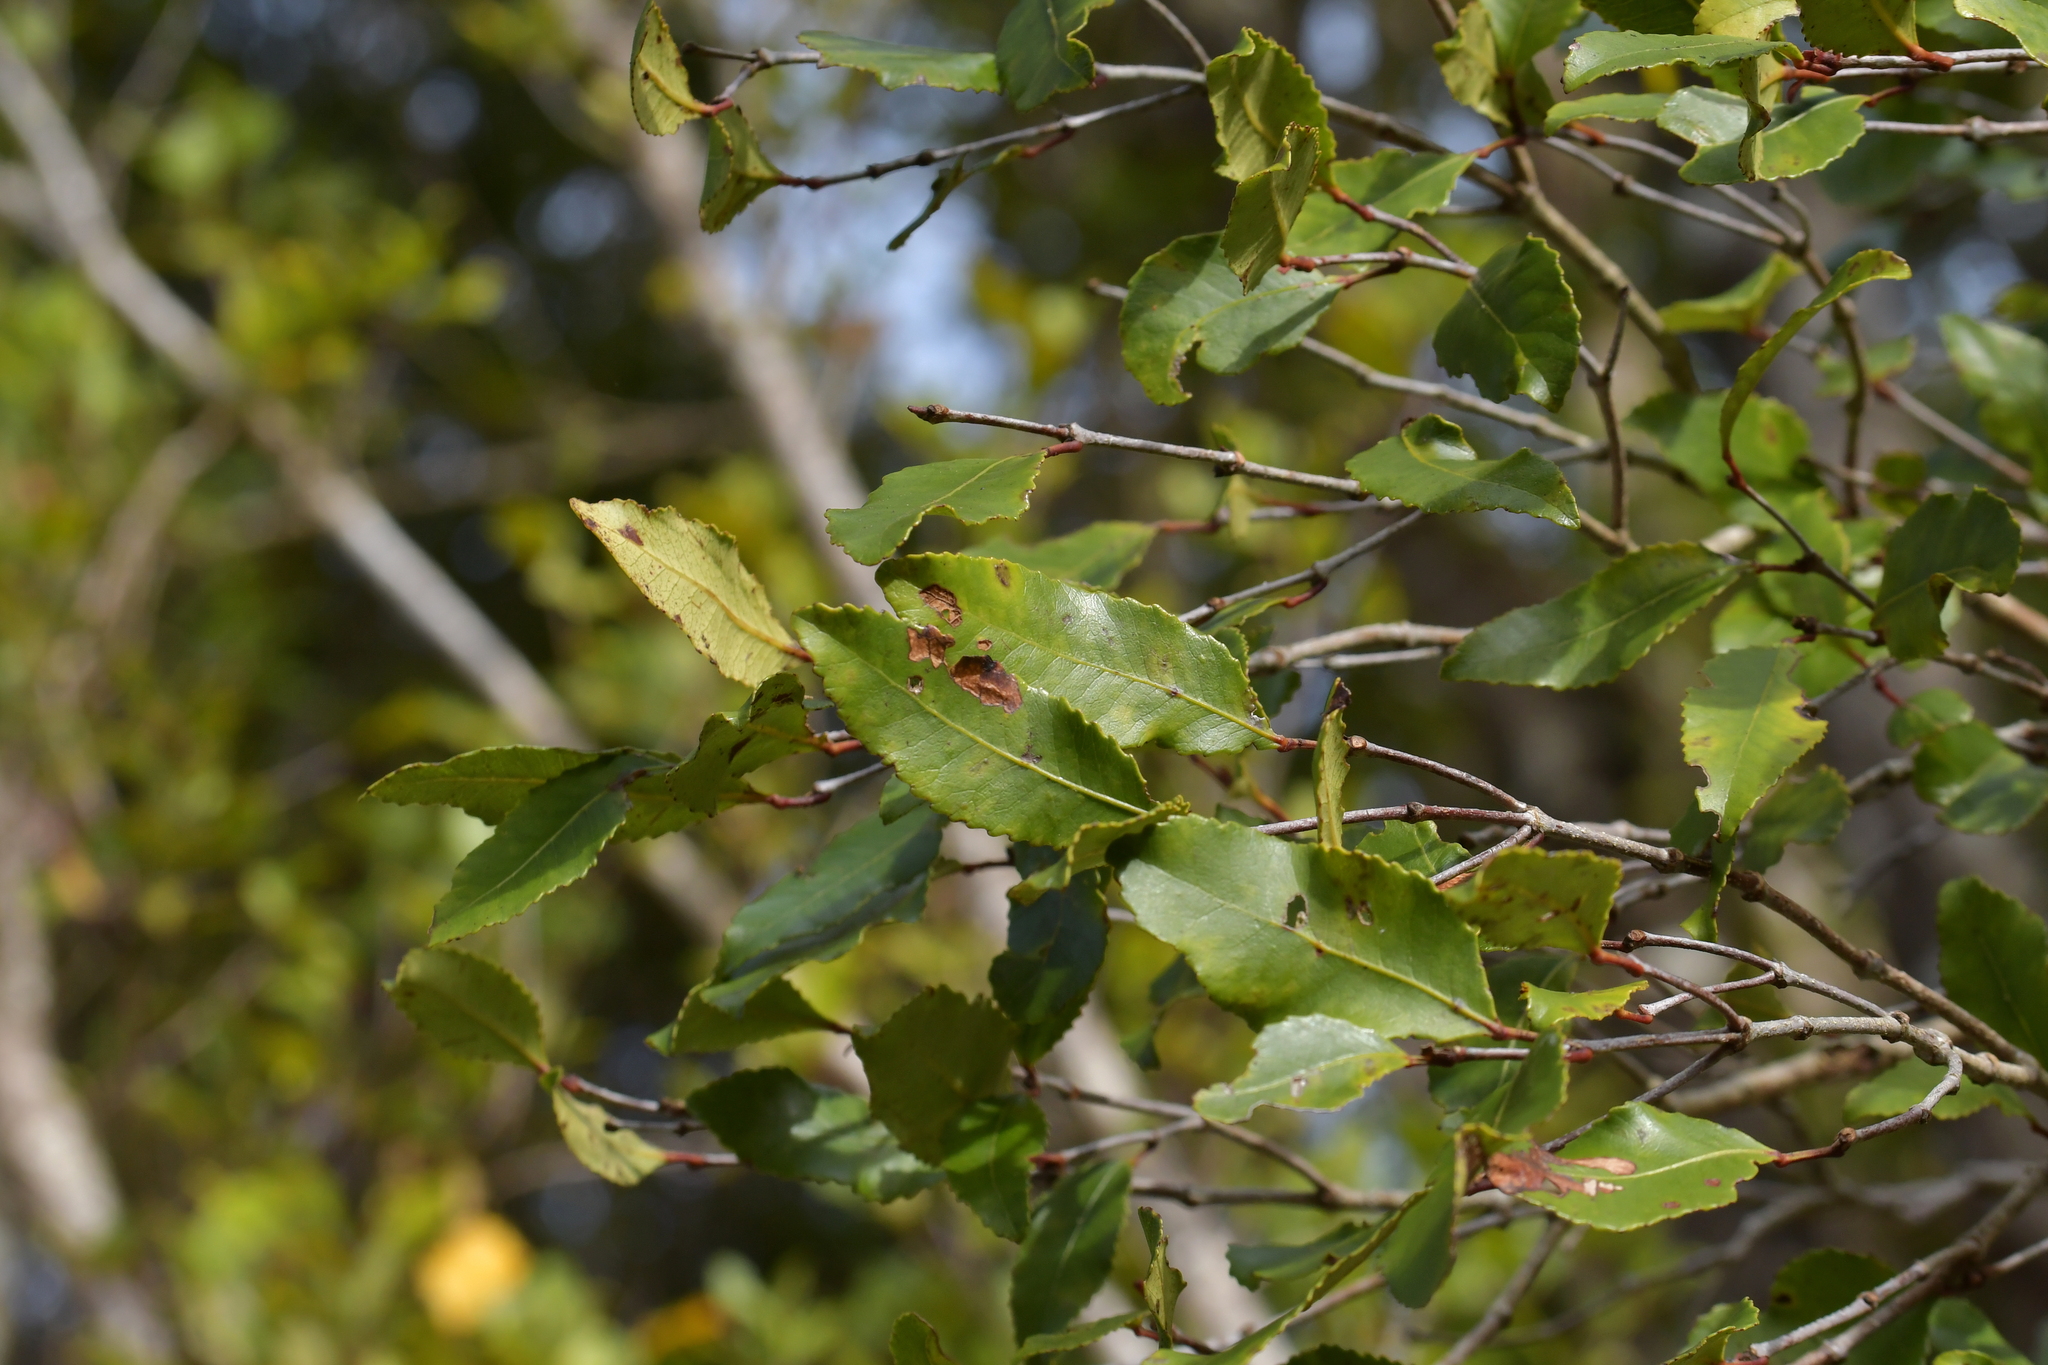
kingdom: Plantae
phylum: Tracheophyta
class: Magnoliopsida
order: Oxalidales
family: Cunoniaceae
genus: Pterophylla
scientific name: Pterophylla racemosa
